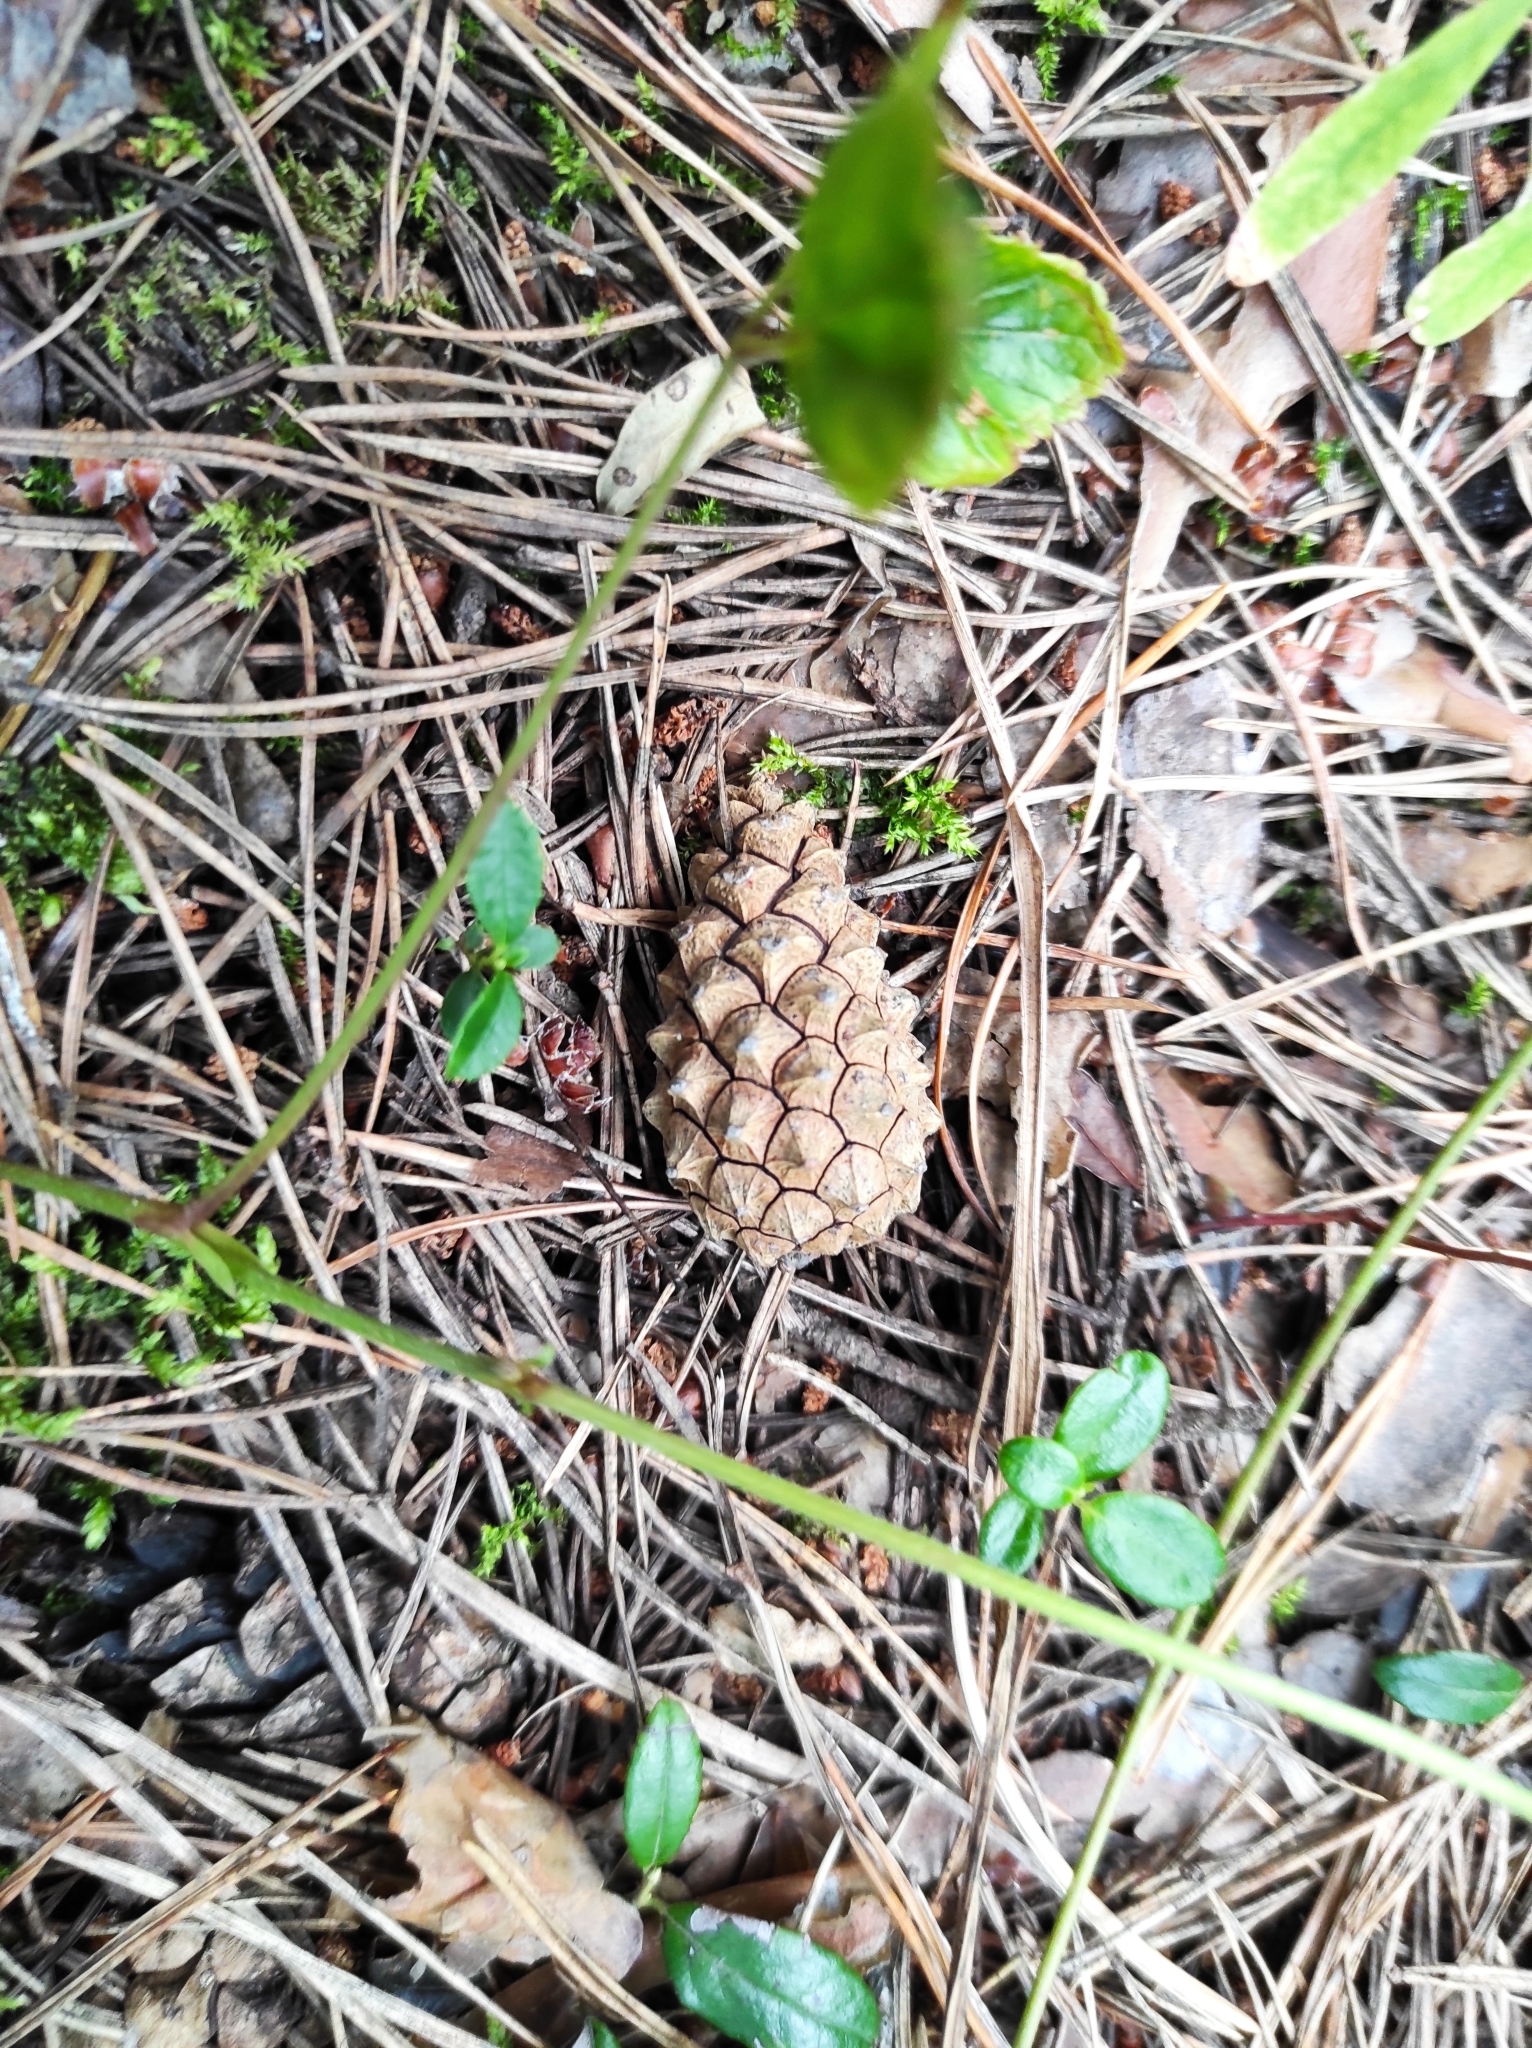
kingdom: Plantae
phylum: Tracheophyta
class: Pinopsida
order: Pinales
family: Pinaceae
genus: Pinus
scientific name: Pinus sylvestris
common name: Scots pine
